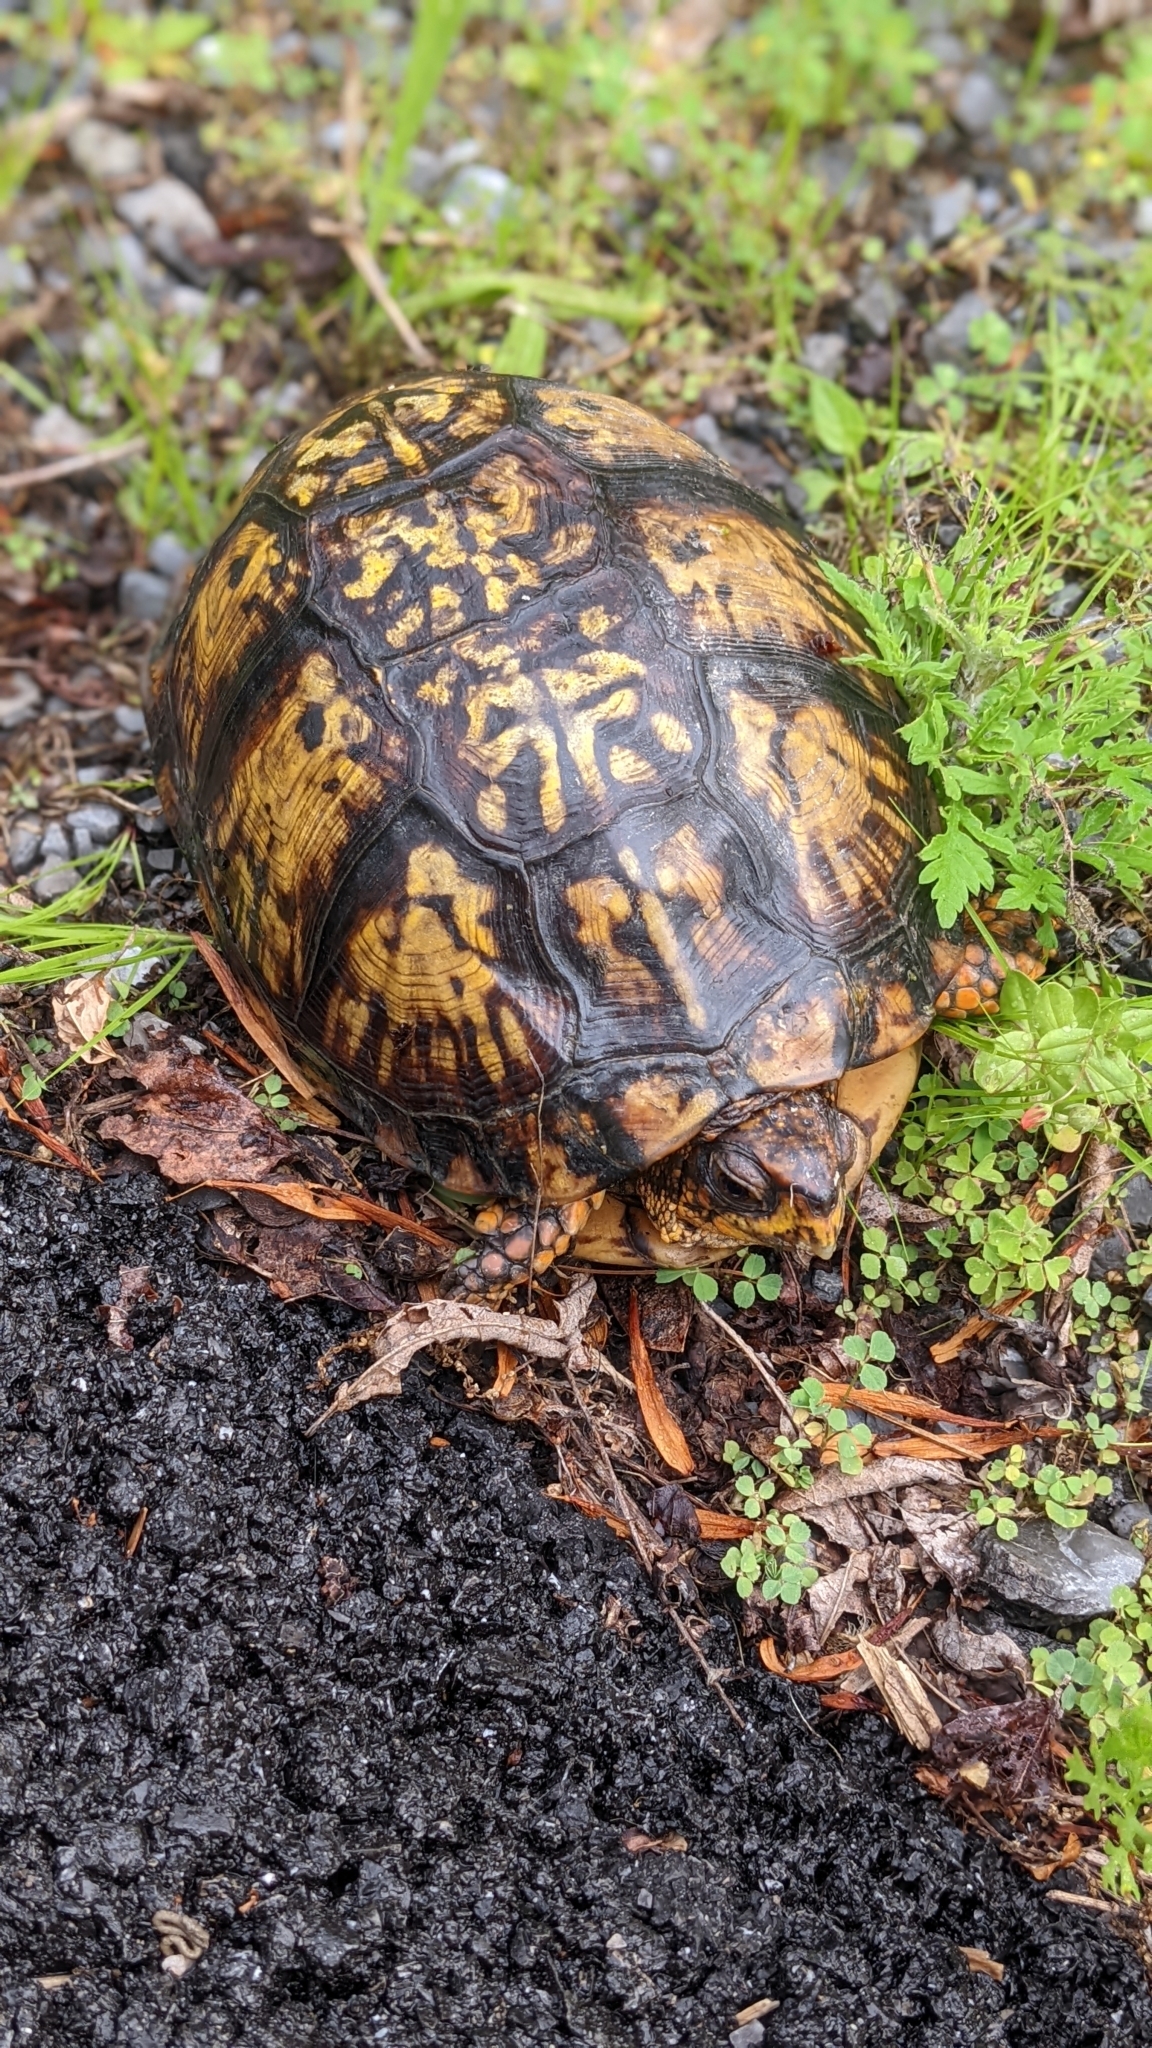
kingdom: Animalia
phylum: Chordata
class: Testudines
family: Emydidae
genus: Terrapene
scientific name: Terrapene carolina
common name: Common box turtle
